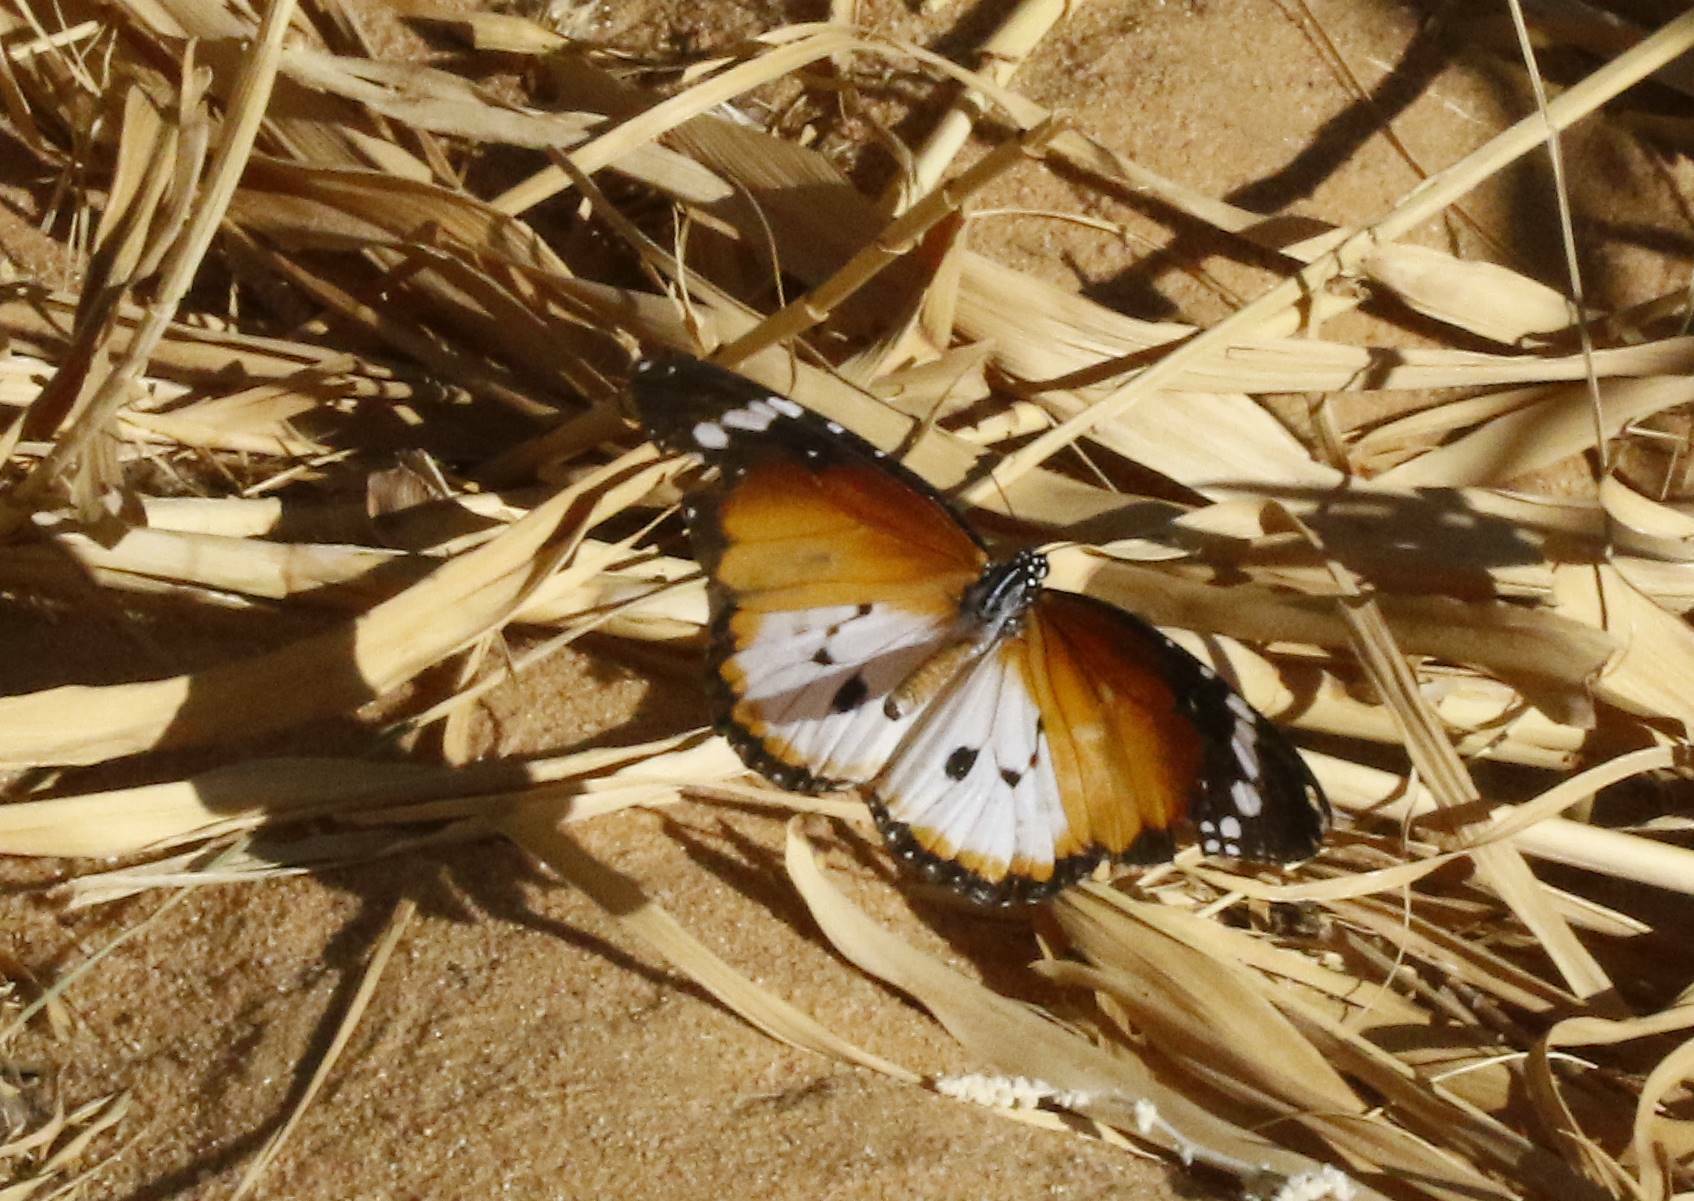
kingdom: Animalia
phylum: Arthropoda
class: Insecta
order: Lepidoptera
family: Nymphalidae
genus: Danaus
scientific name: Danaus chrysippus
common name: Plain tiger
